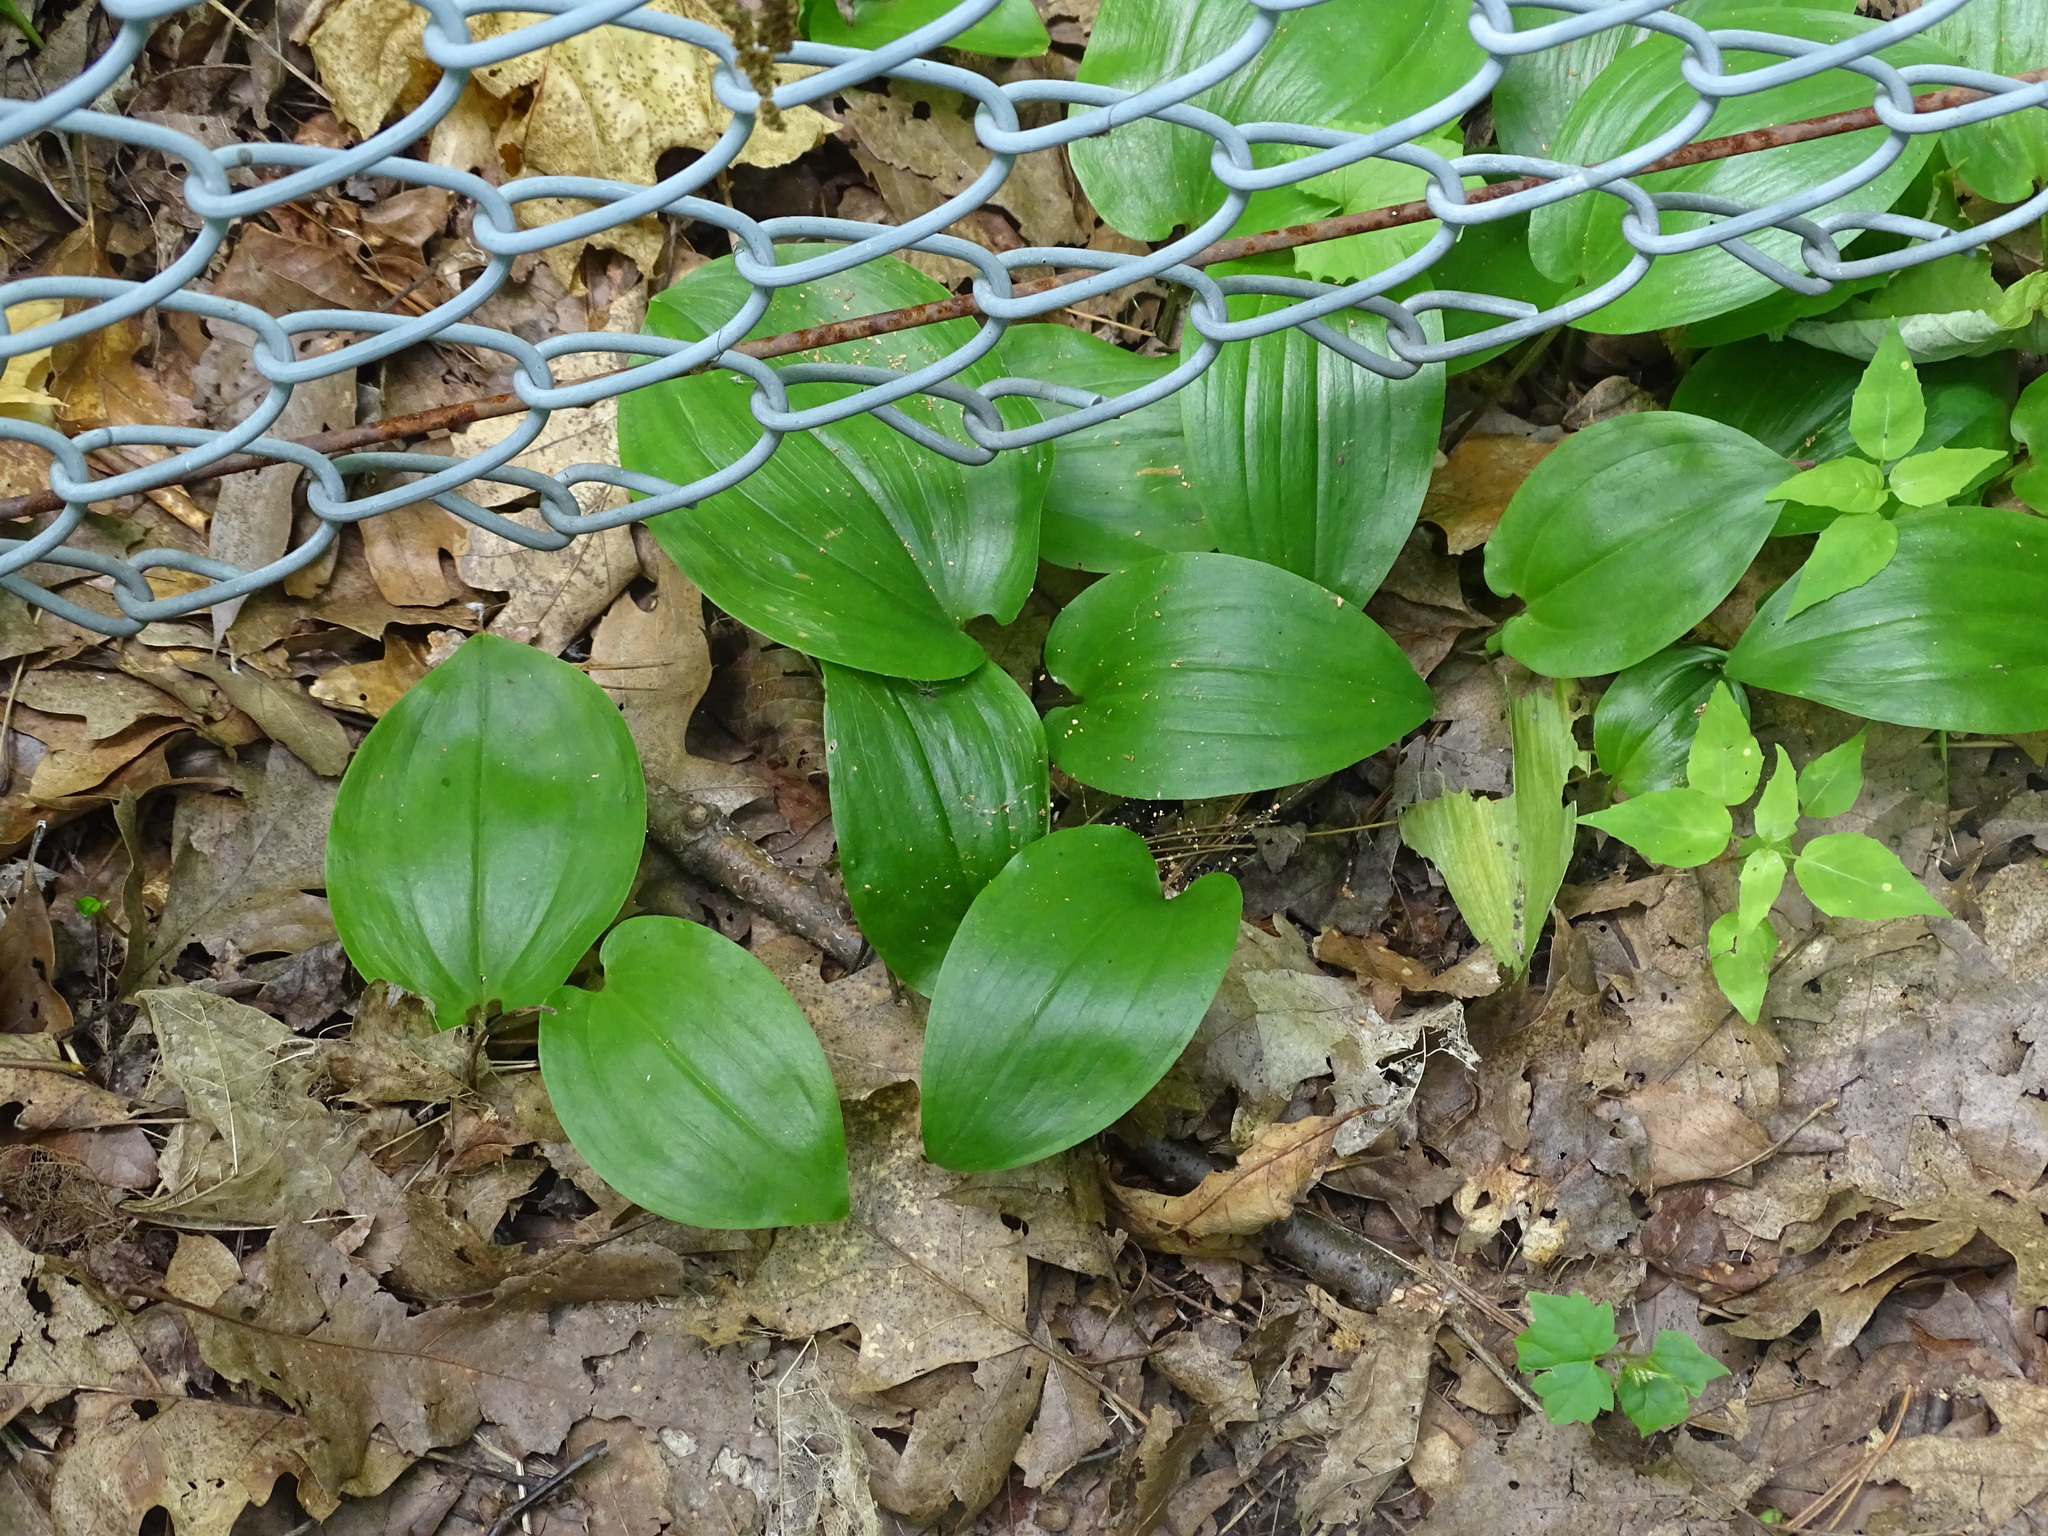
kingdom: Plantae
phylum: Tracheophyta
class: Liliopsida
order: Asparagales
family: Asparagaceae
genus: Maianthemum
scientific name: Maianthemum canadense
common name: False lily-of-the-valley
